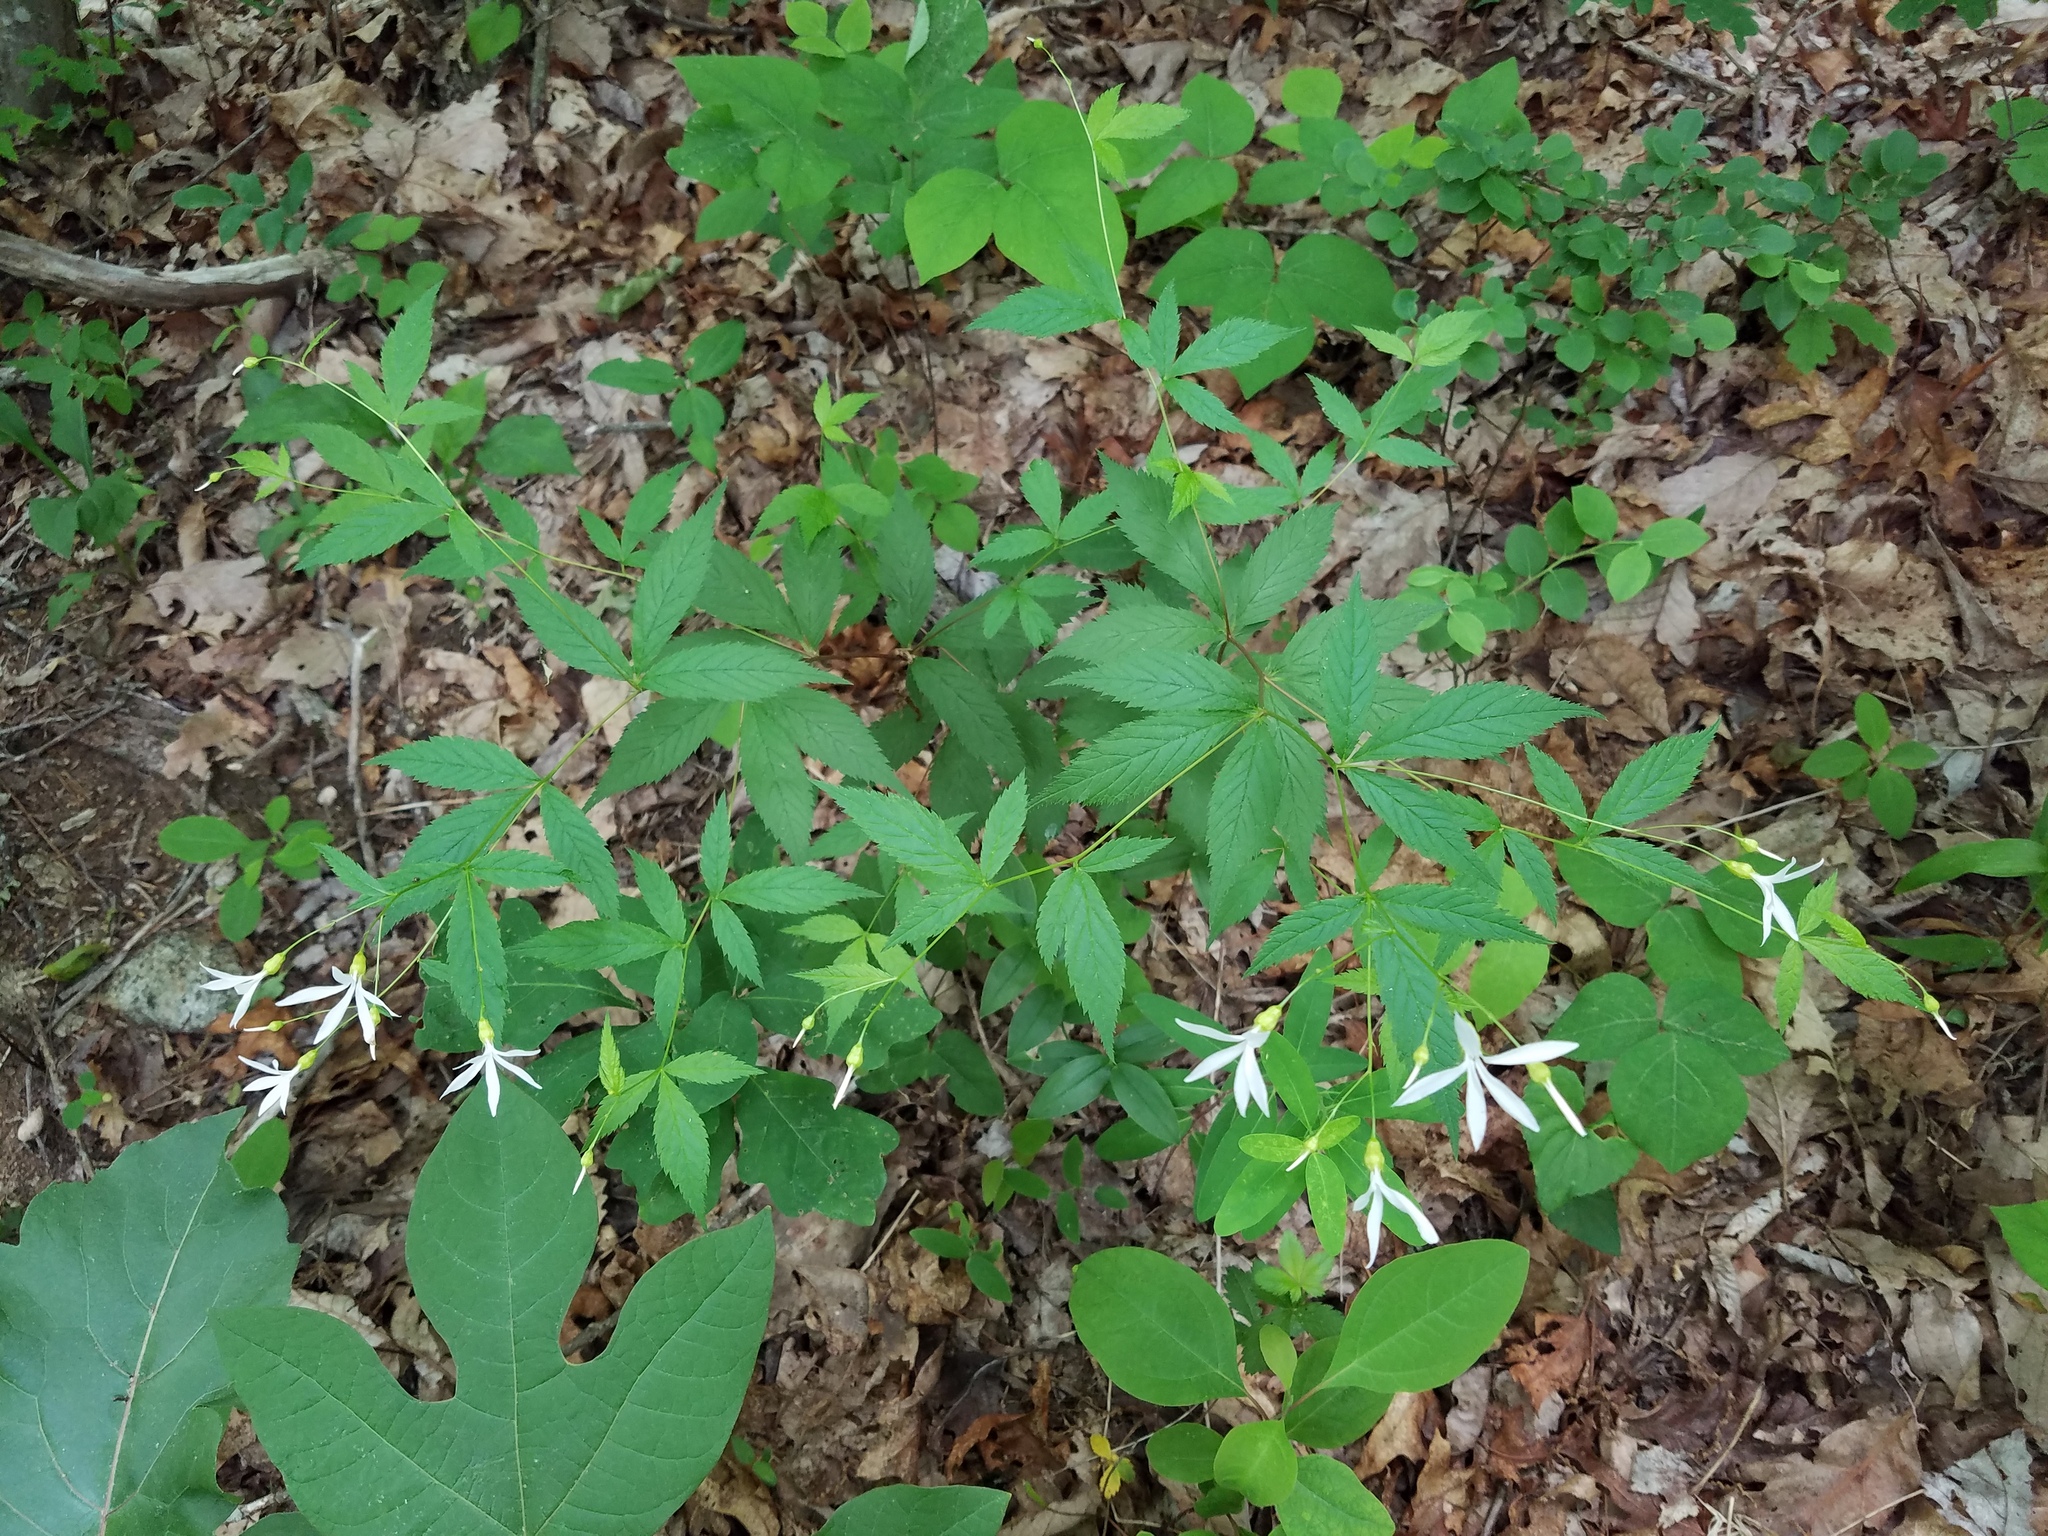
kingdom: Plantae
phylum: Tracheophyta
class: Magnoliopsida
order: Rosales
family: Rosaceae
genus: Gillenia
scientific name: Gillenia trifoliata
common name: Bowman's-root
